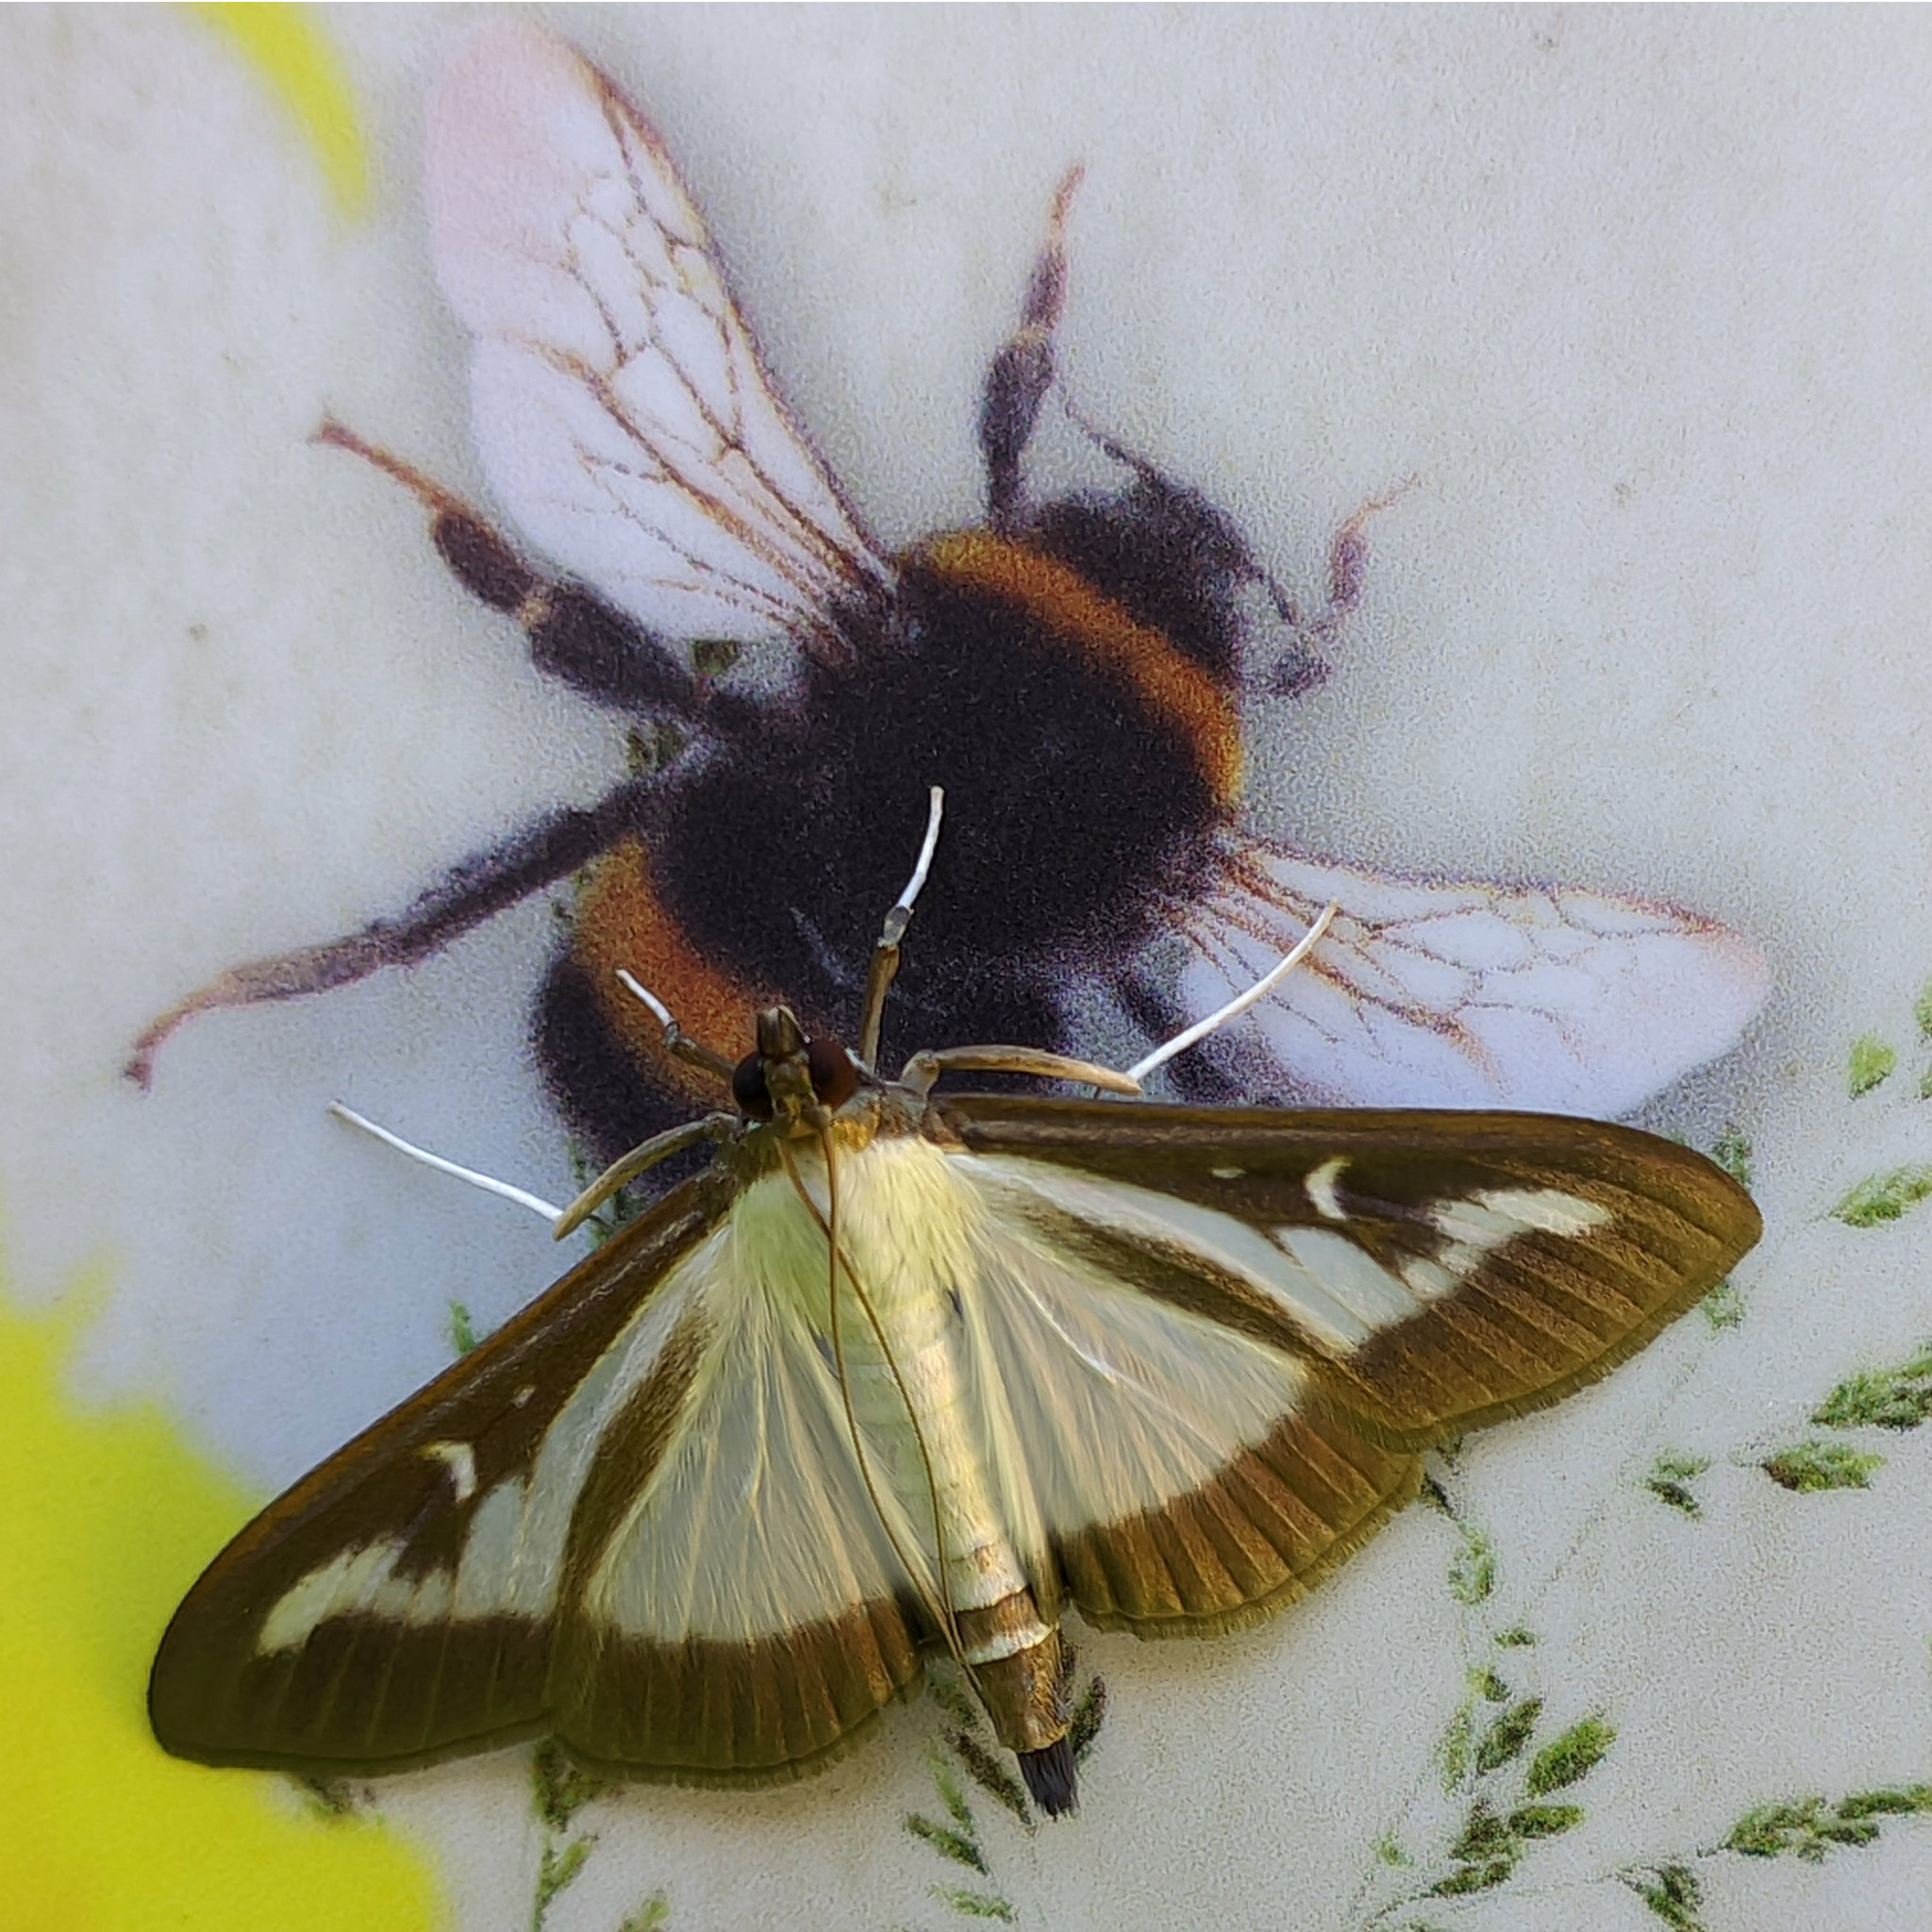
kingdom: Animalia
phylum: Arthropoda
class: Insecta
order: Lepidoptera
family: Crambidae
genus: Cydalima
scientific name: Cydalima perspectalis
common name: Box tree moth
